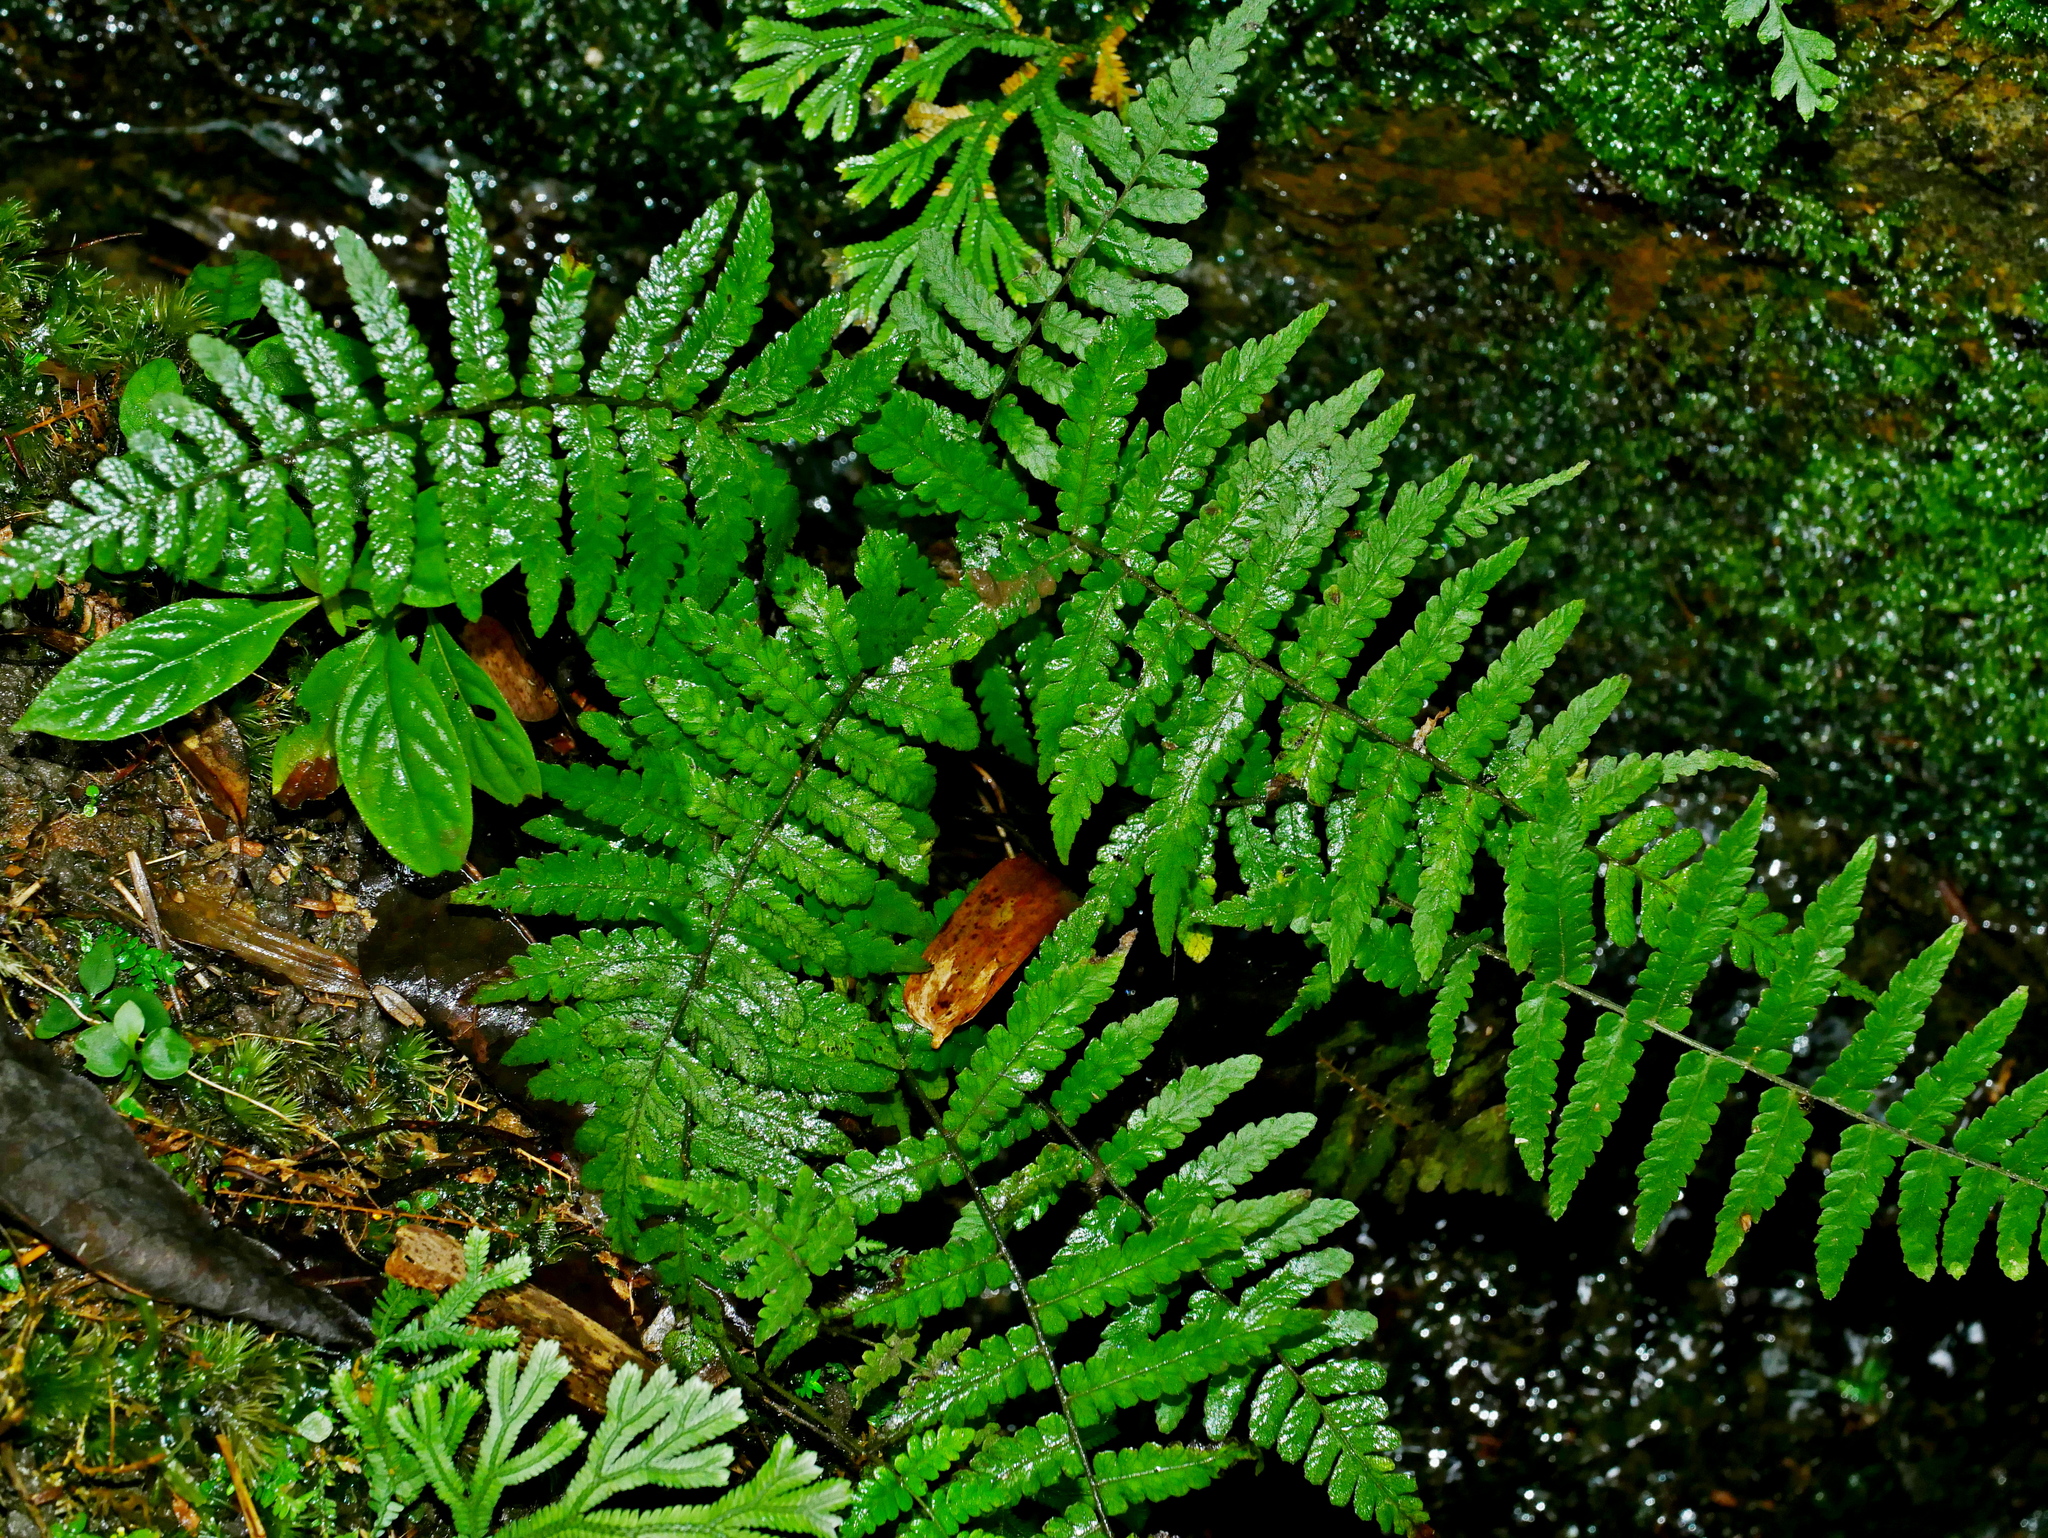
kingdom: Plantae
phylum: Tracheophyta
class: Polypodiopsida
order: Polypodiales
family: Thelypteridaceae
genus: Coryphopteris
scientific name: Coryphopteris angulariloba
